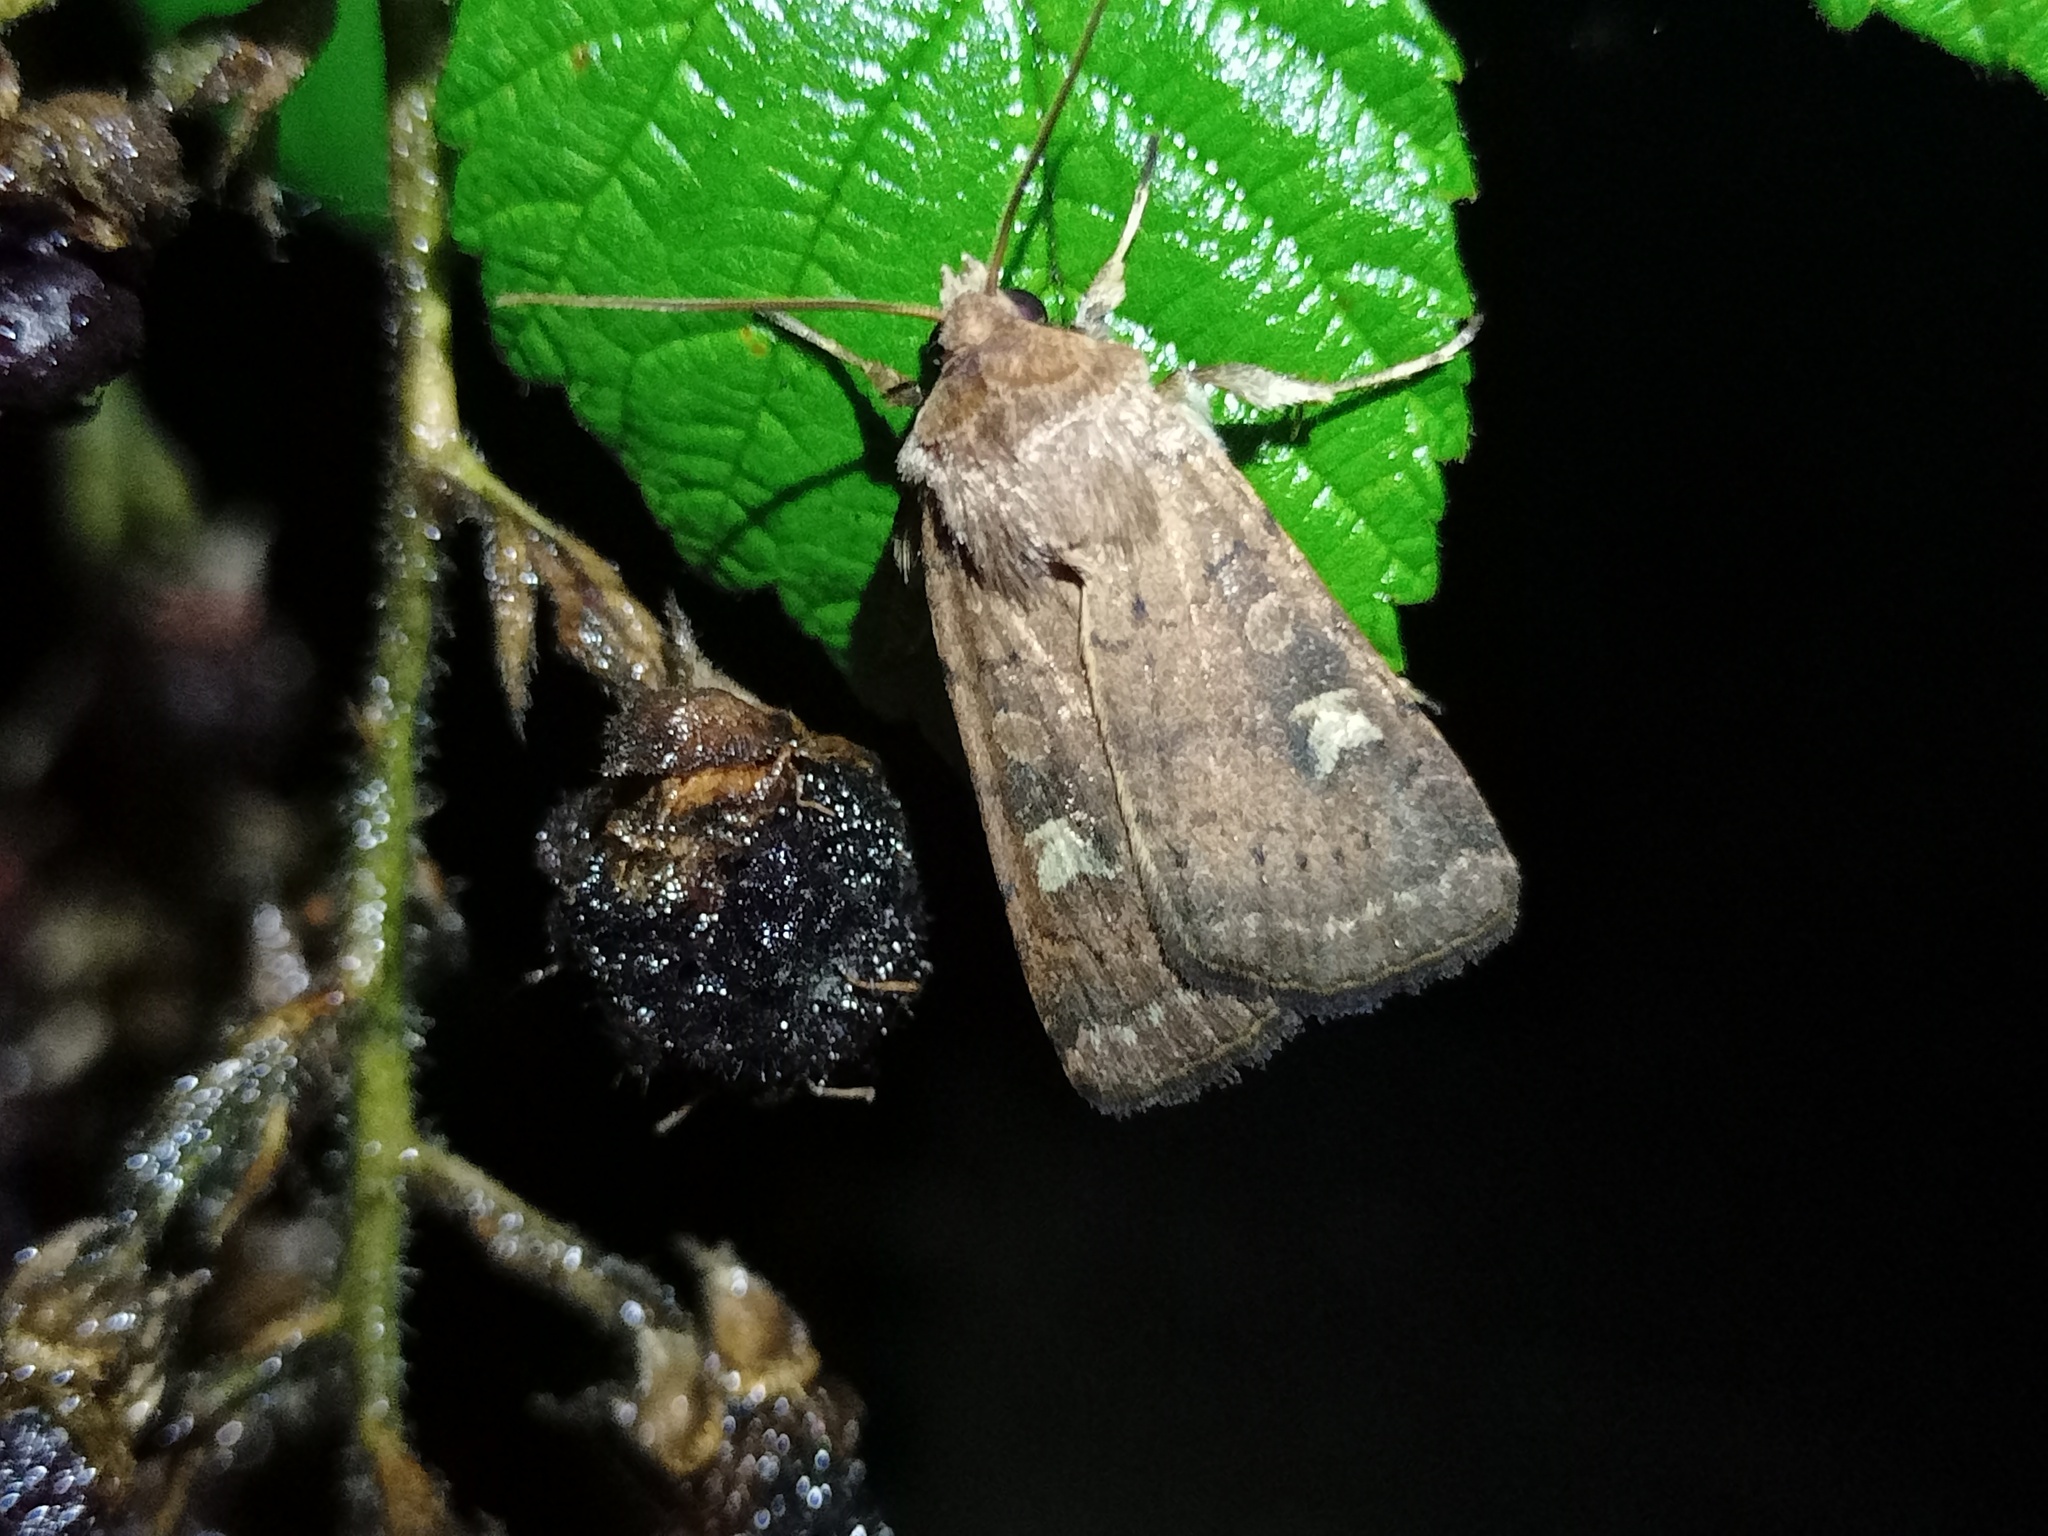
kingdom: Animalia
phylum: Arthropoda
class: Insecta
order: Lepidoptera
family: Noctuidae
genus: Xestia
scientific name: Xestia xanthographa
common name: Square-spot rustic
